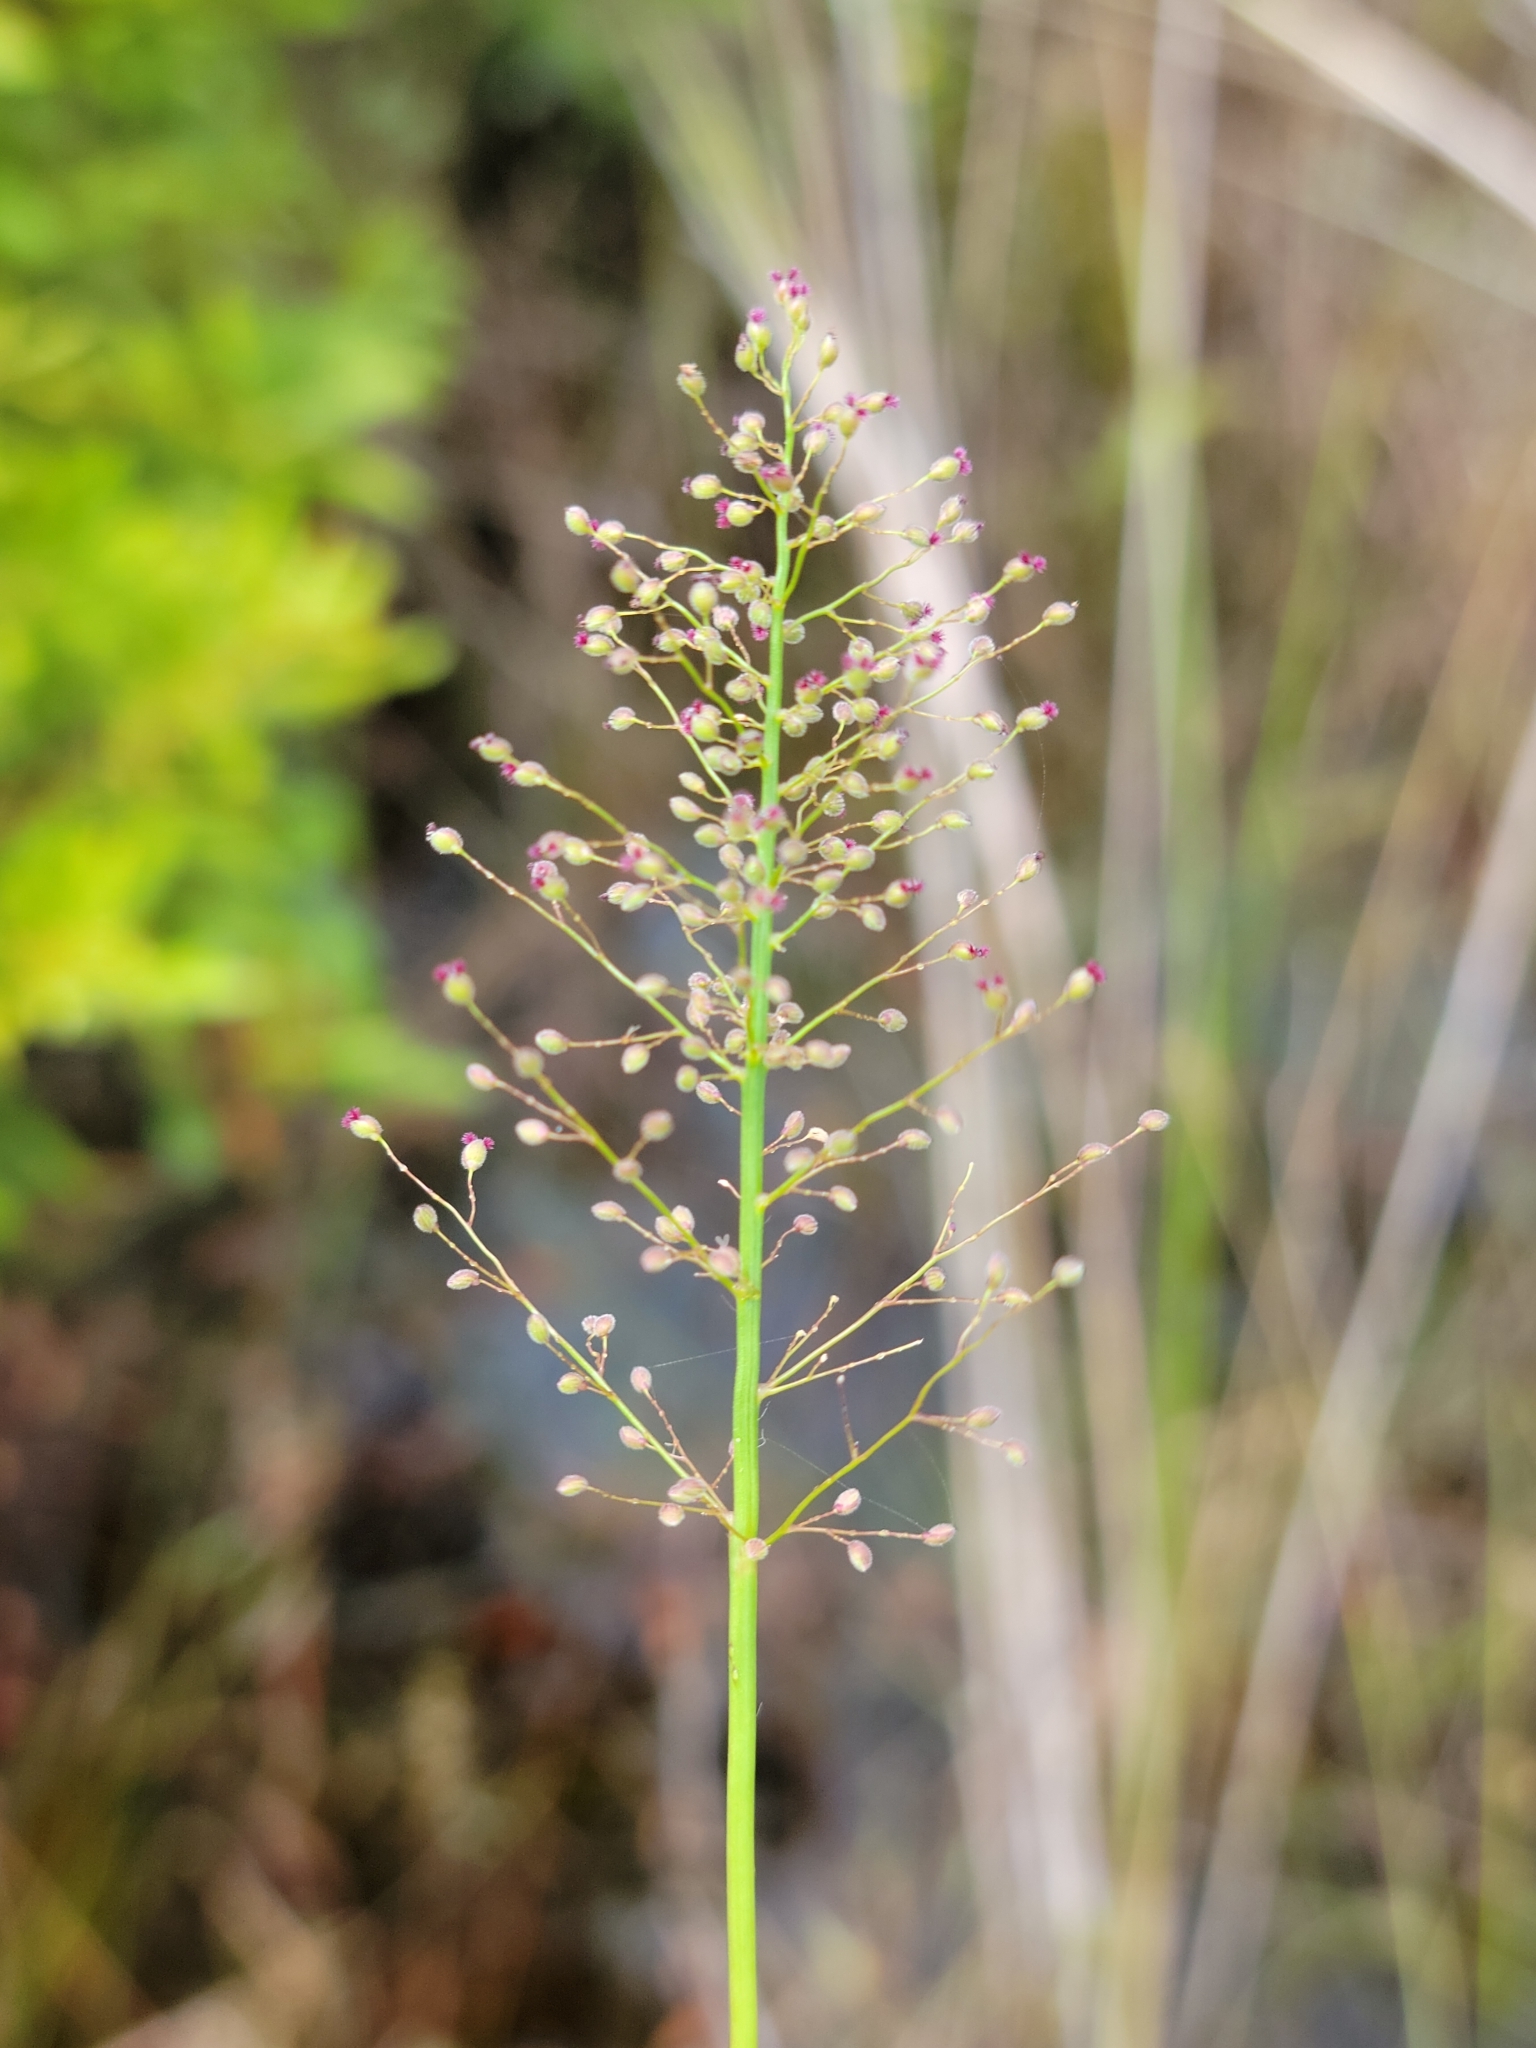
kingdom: Plantae
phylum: Tracheophyta
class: Liliopsida
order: Poales
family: Poaceae
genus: Dichanthelium
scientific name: Dichanthelium erectifolium
